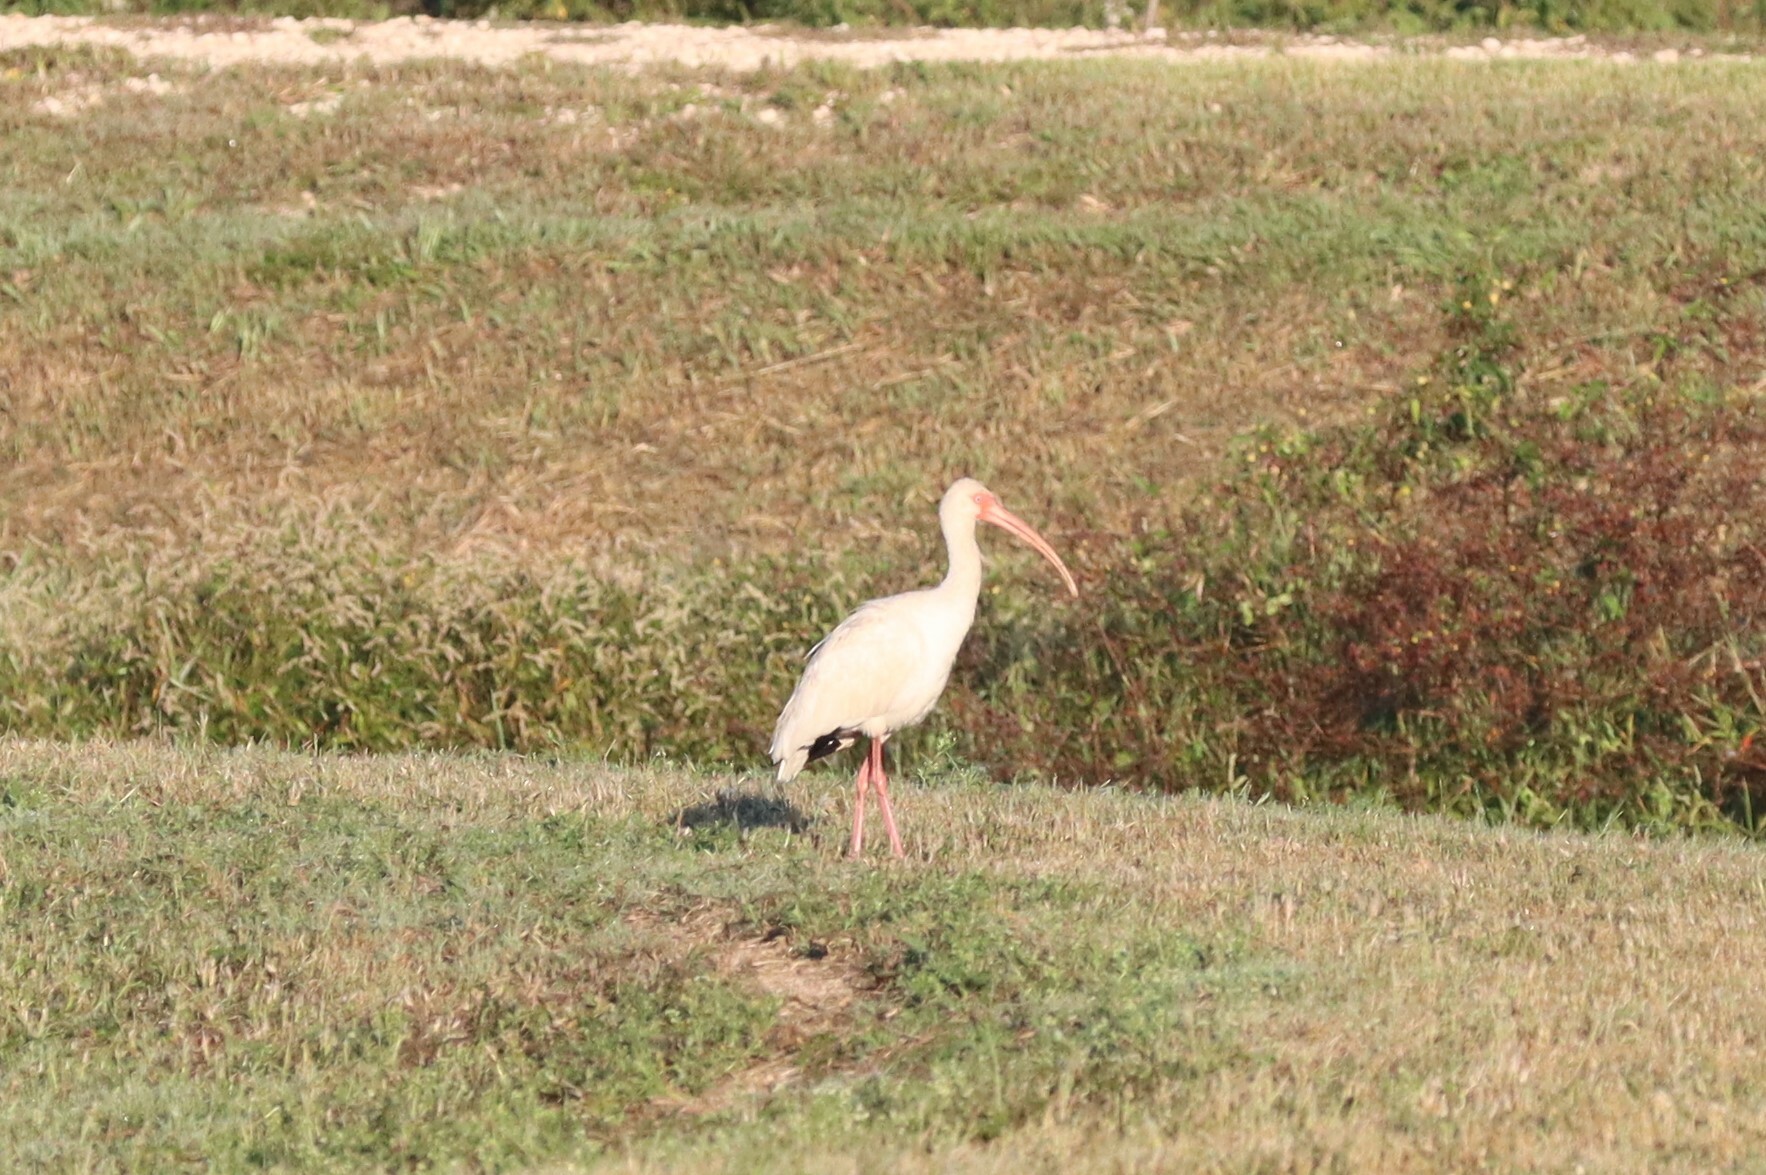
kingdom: Animalia
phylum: Chordata
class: Aves
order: Pelecaniformes
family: Threskiornithidae
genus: Eudocimus
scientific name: Eudocimus albus
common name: White ibis
